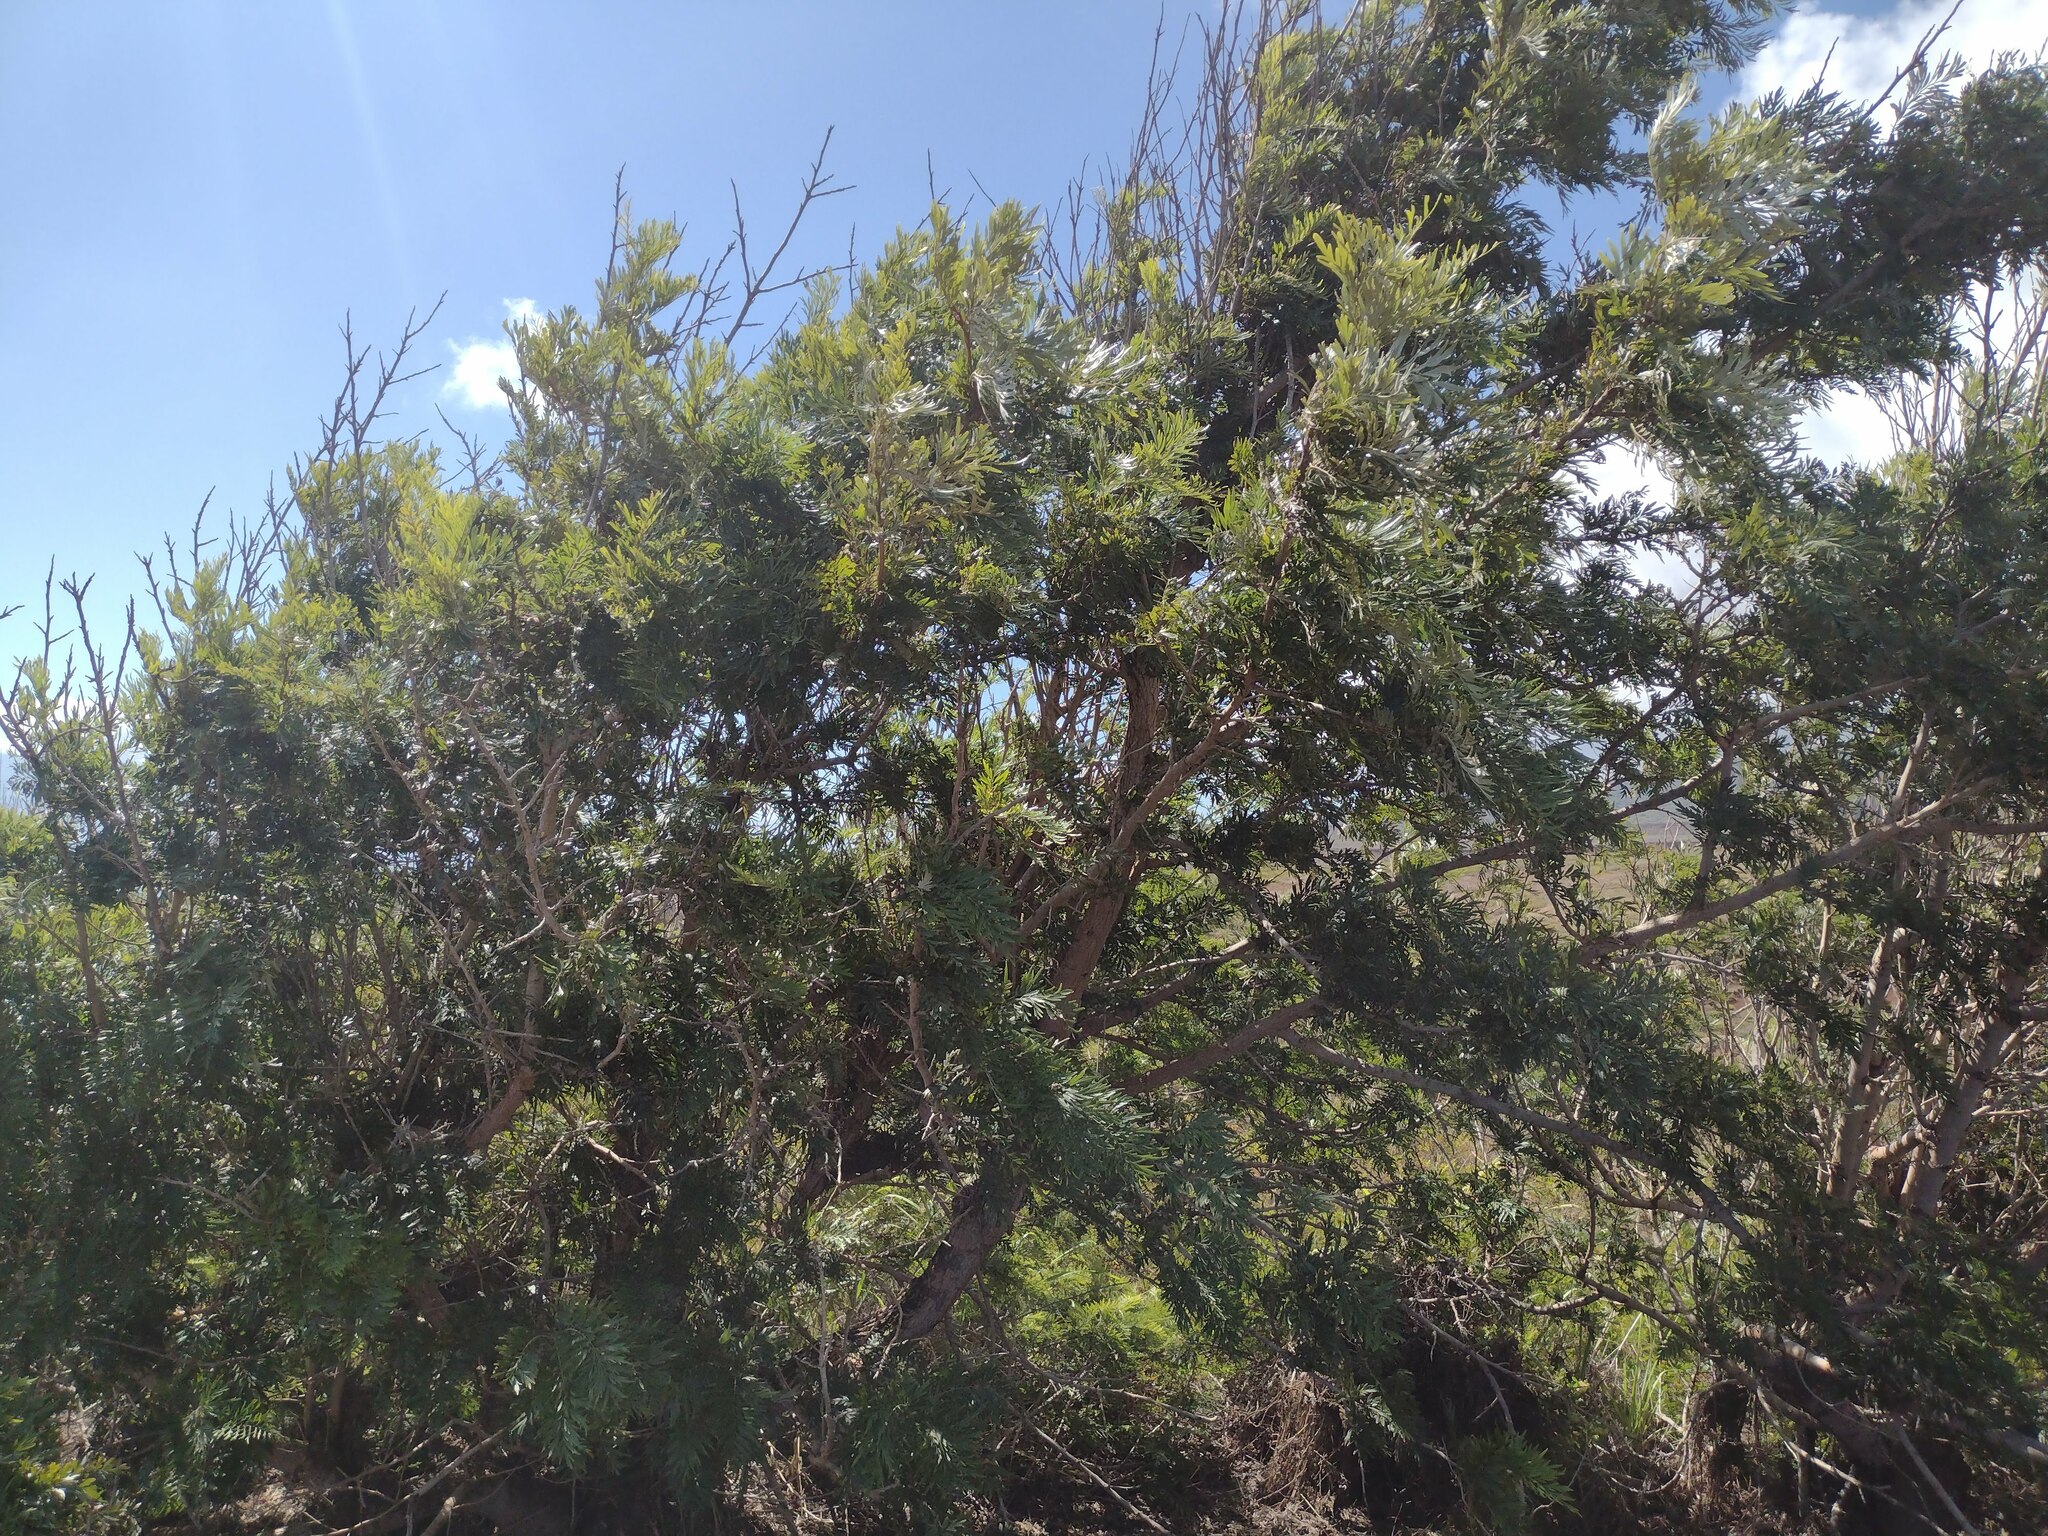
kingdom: Plantae
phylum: Tracheophyta
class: Magnoliopsida
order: Proteales
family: Proteaceae
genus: Grevillea
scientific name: Grevillea robusta
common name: Silkoak
